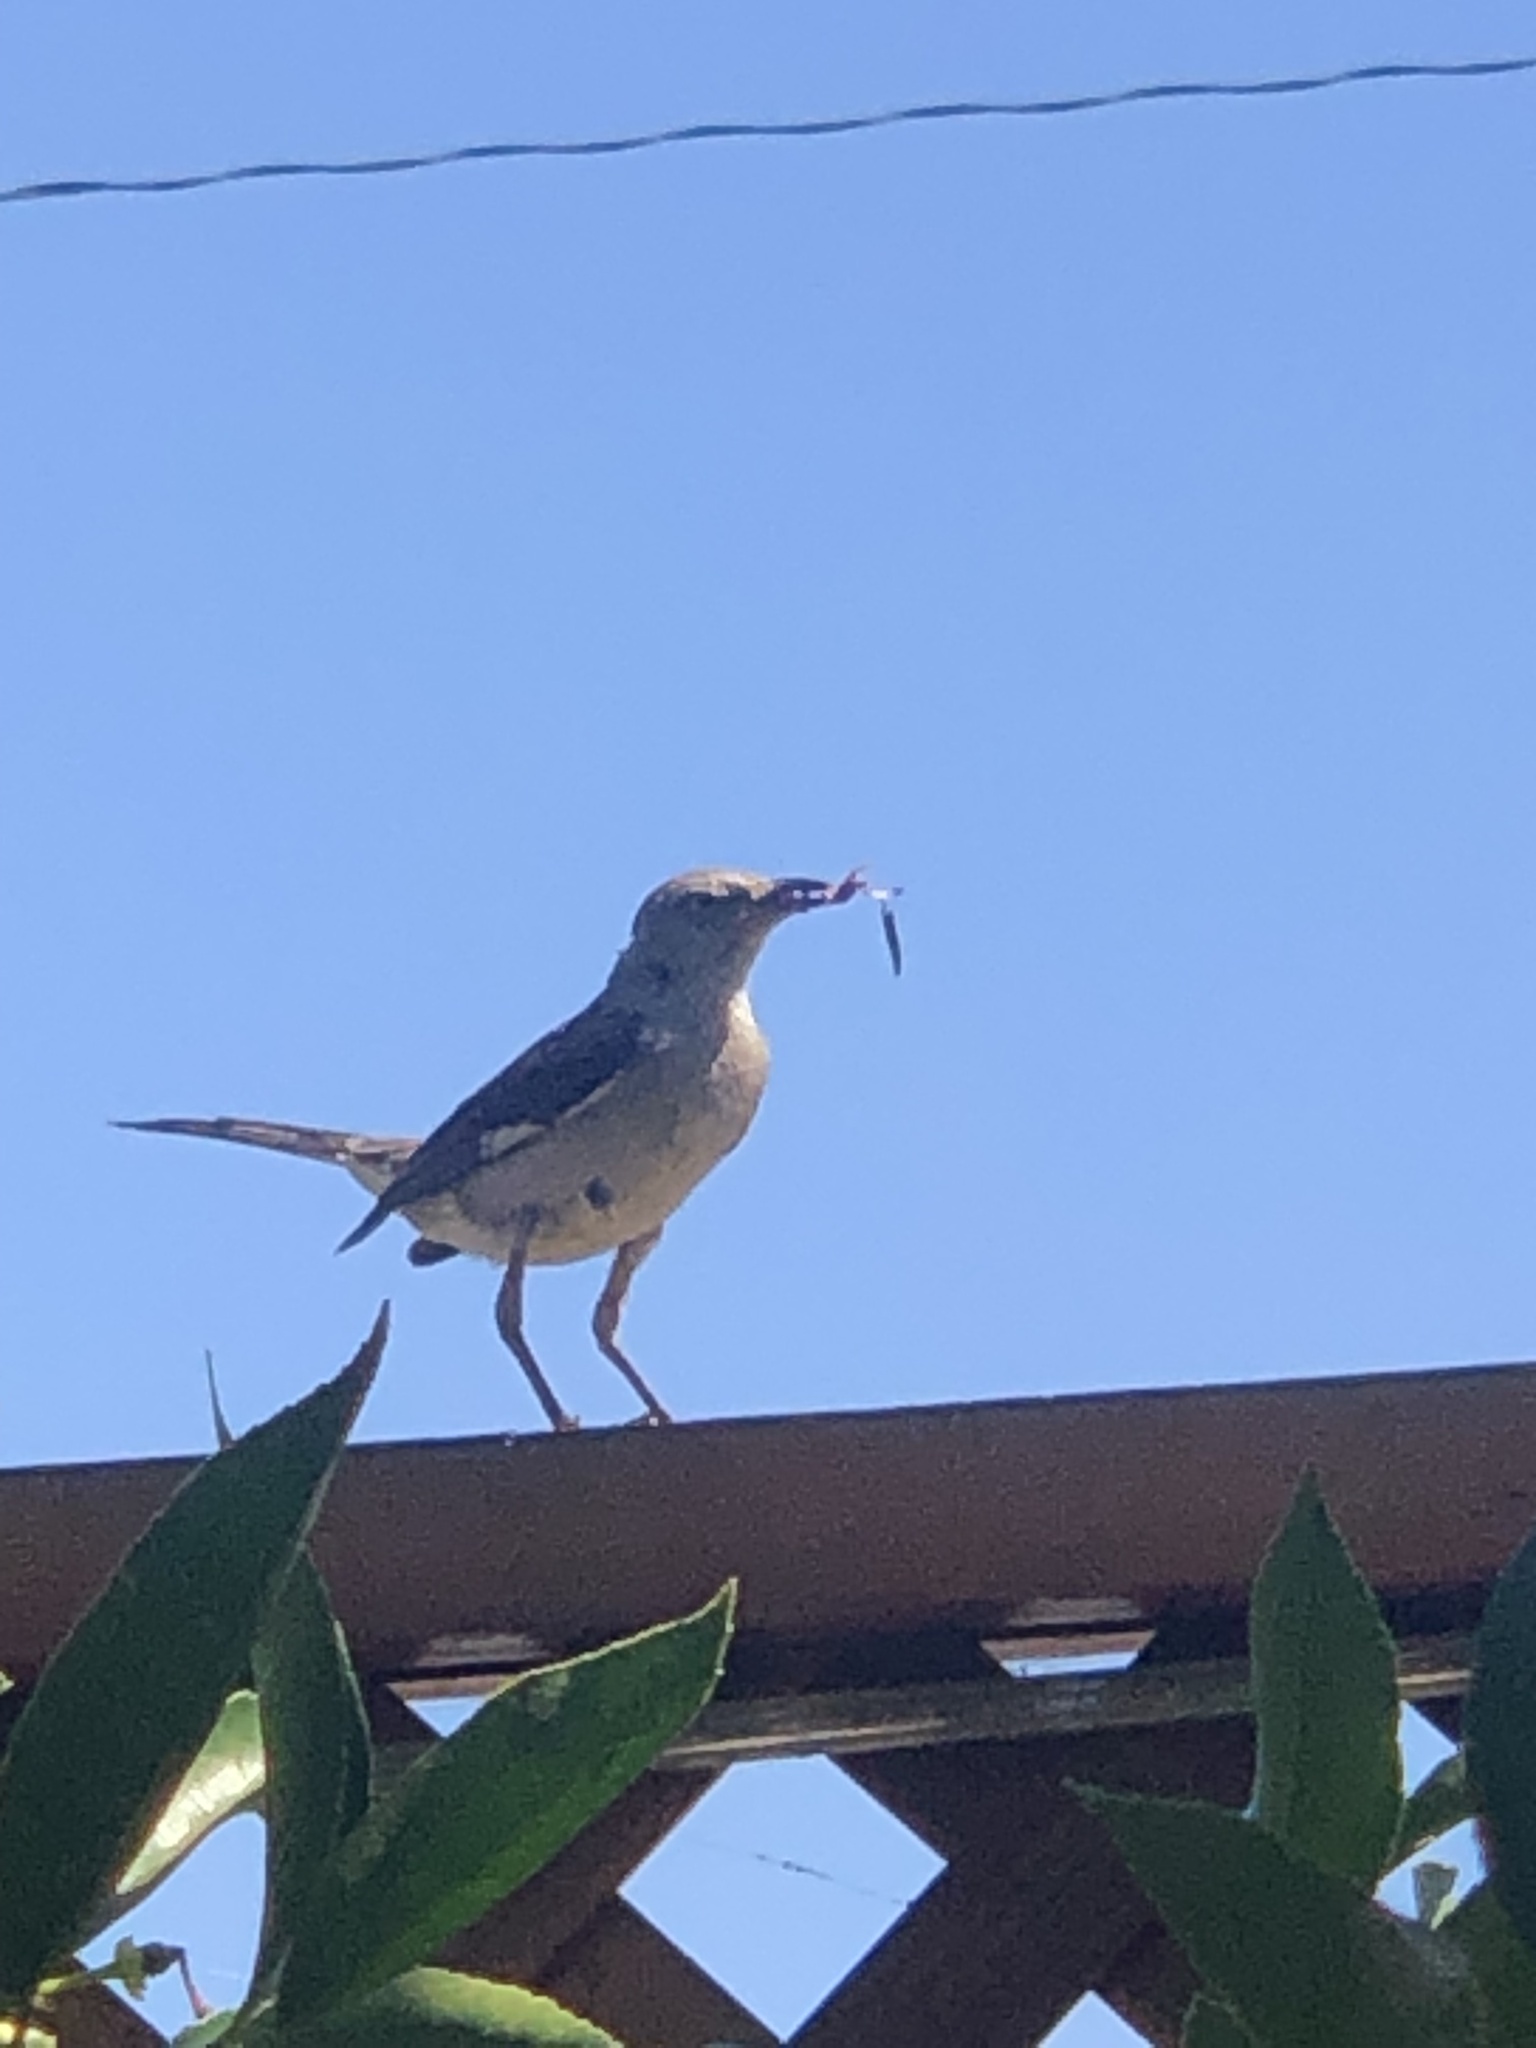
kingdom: Animalia
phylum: Chordata
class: Aves
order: Passeriformes
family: Mimidae
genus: Mimus
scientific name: Mimus polyglottos
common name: Northern mockingbird
